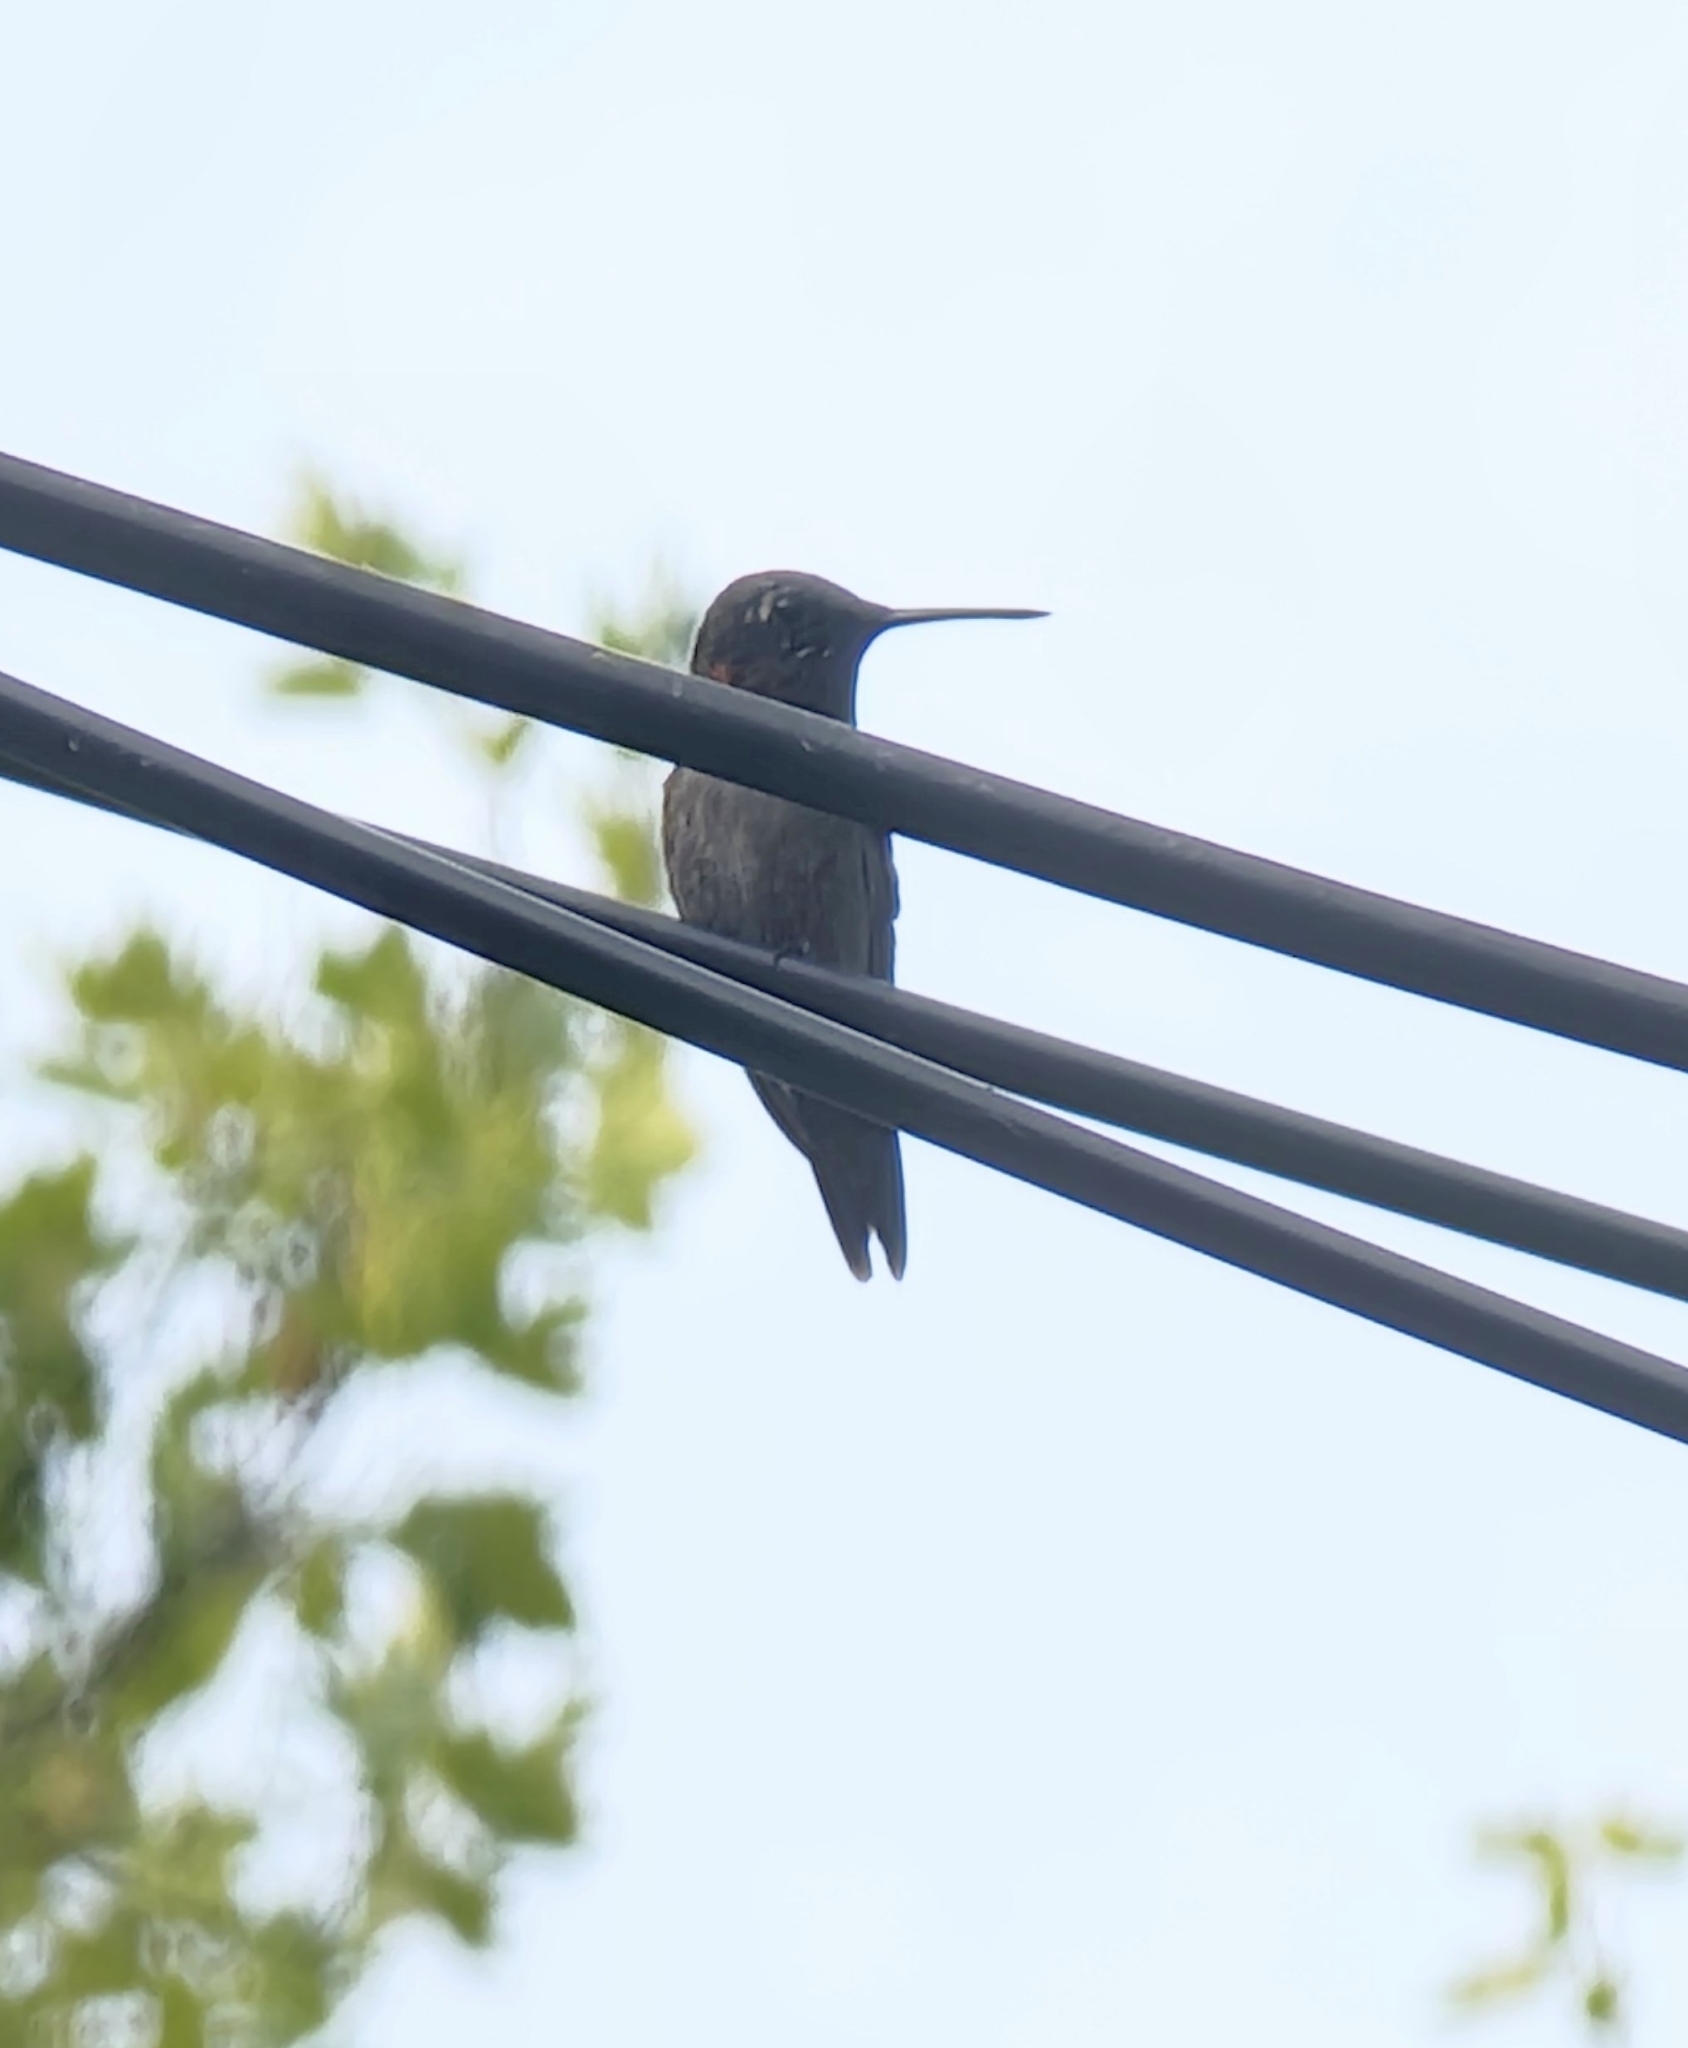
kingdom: Animalia
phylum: Chordata
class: Aves
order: Apodiformes
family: Trochilidae
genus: Archilochus
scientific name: Archilochus colubris
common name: Ruby-throated hummingbird
